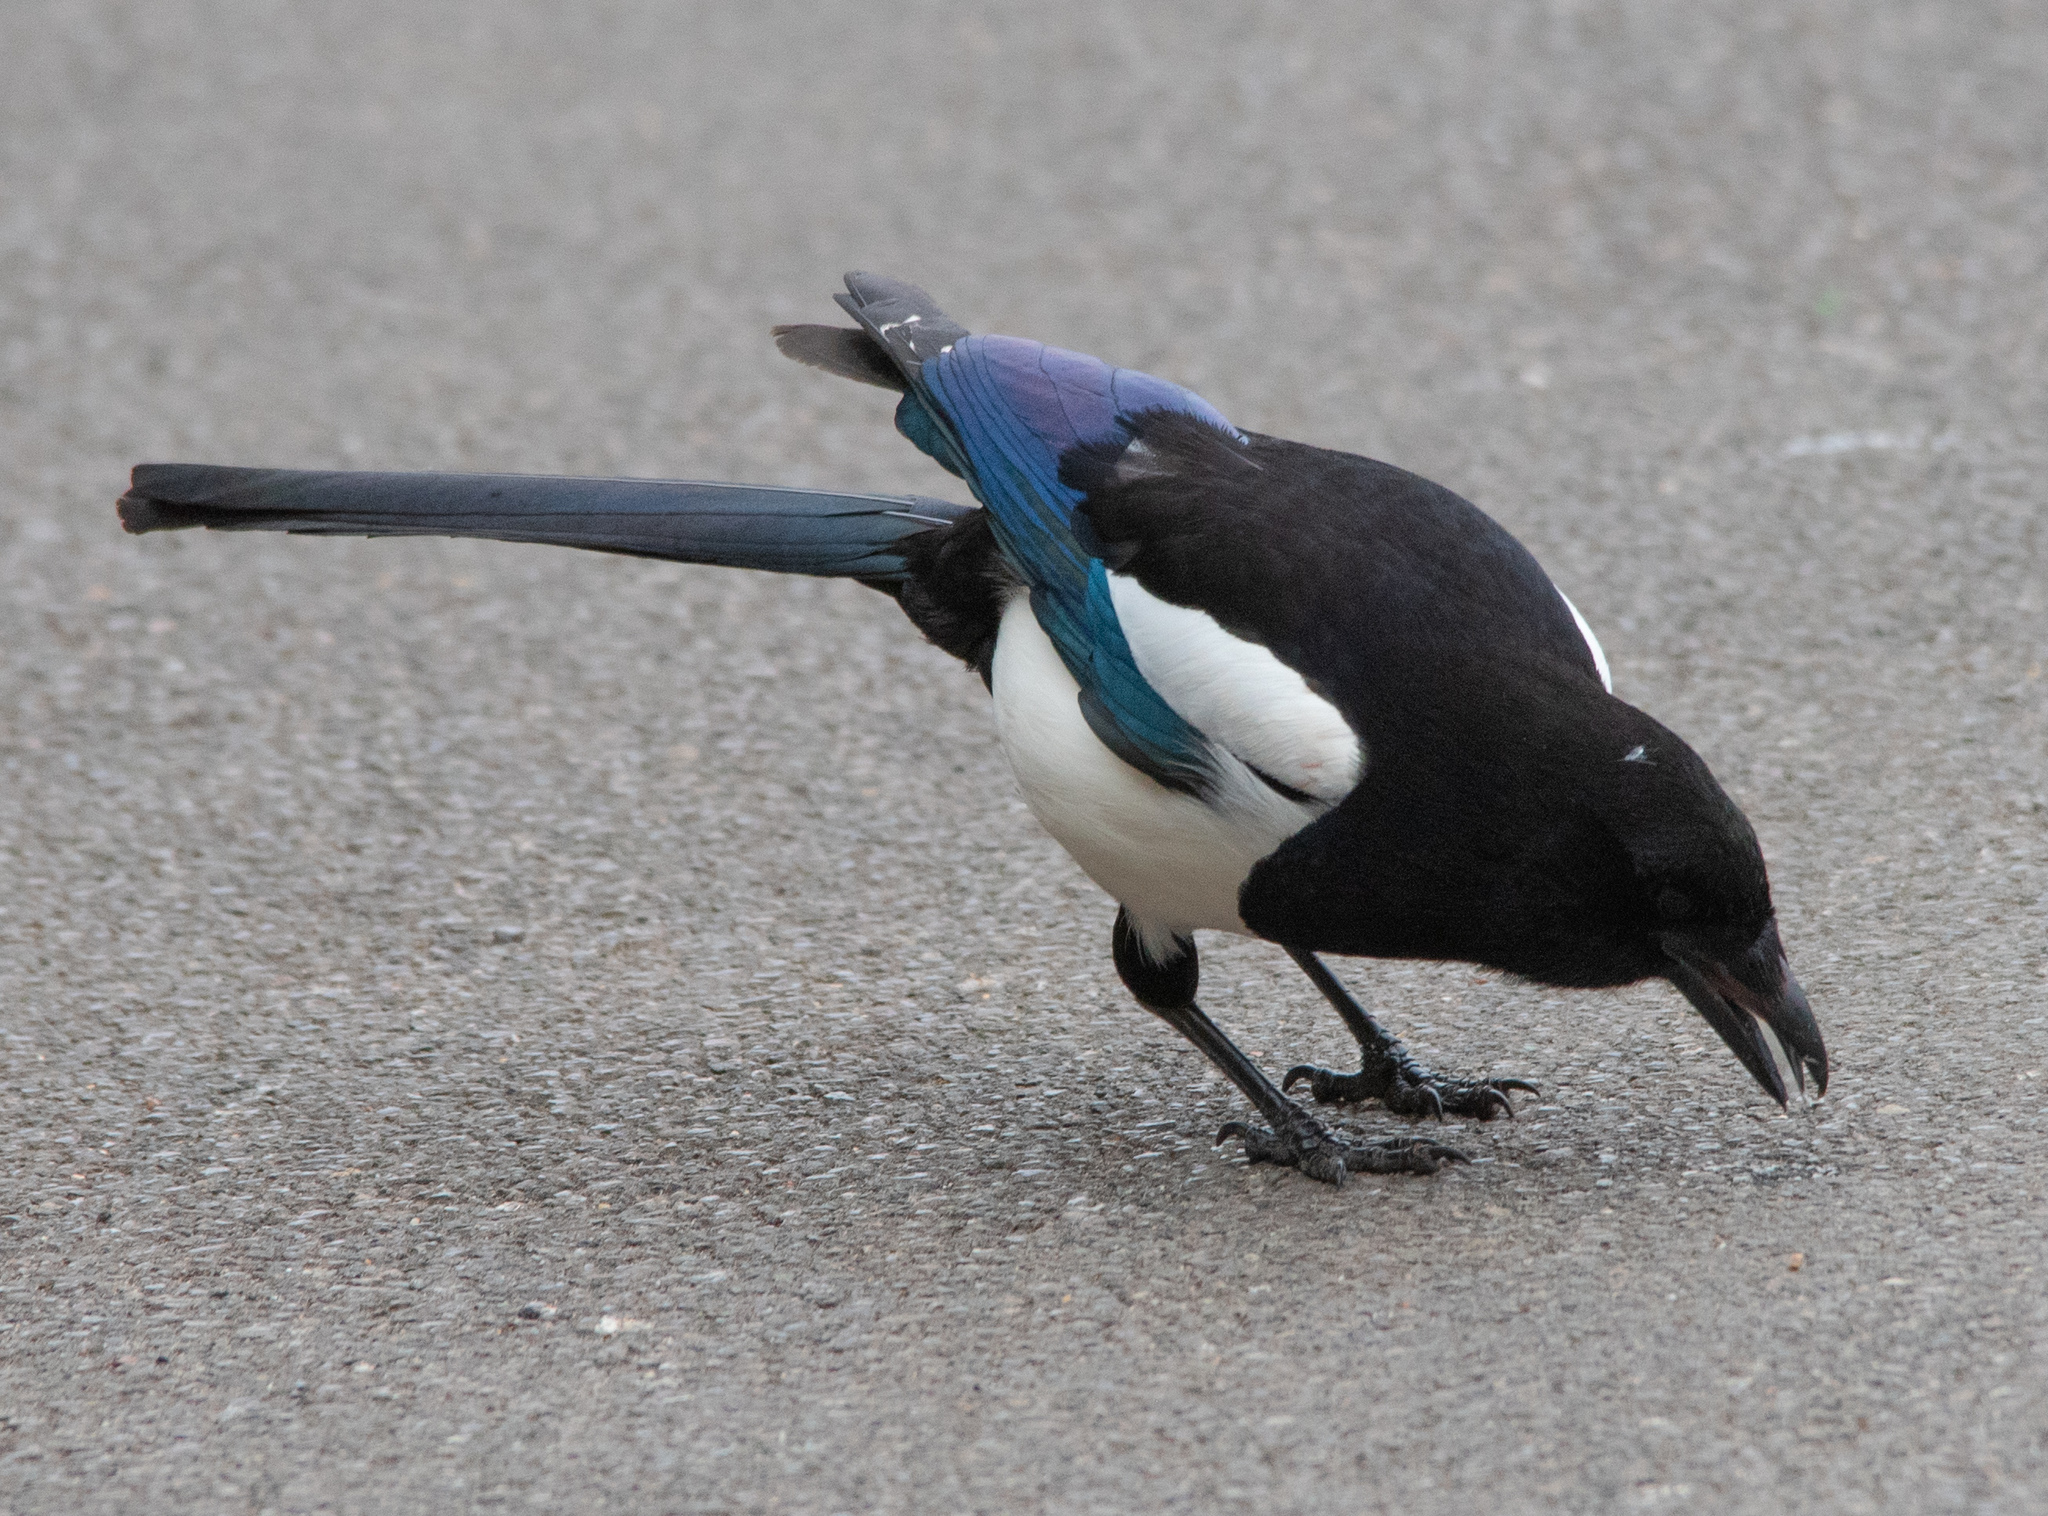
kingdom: Animalia
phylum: Chordata
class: Aves
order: Passeriformes
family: Corvidae
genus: Pica
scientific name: Pica pica
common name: Eurasian magpie
